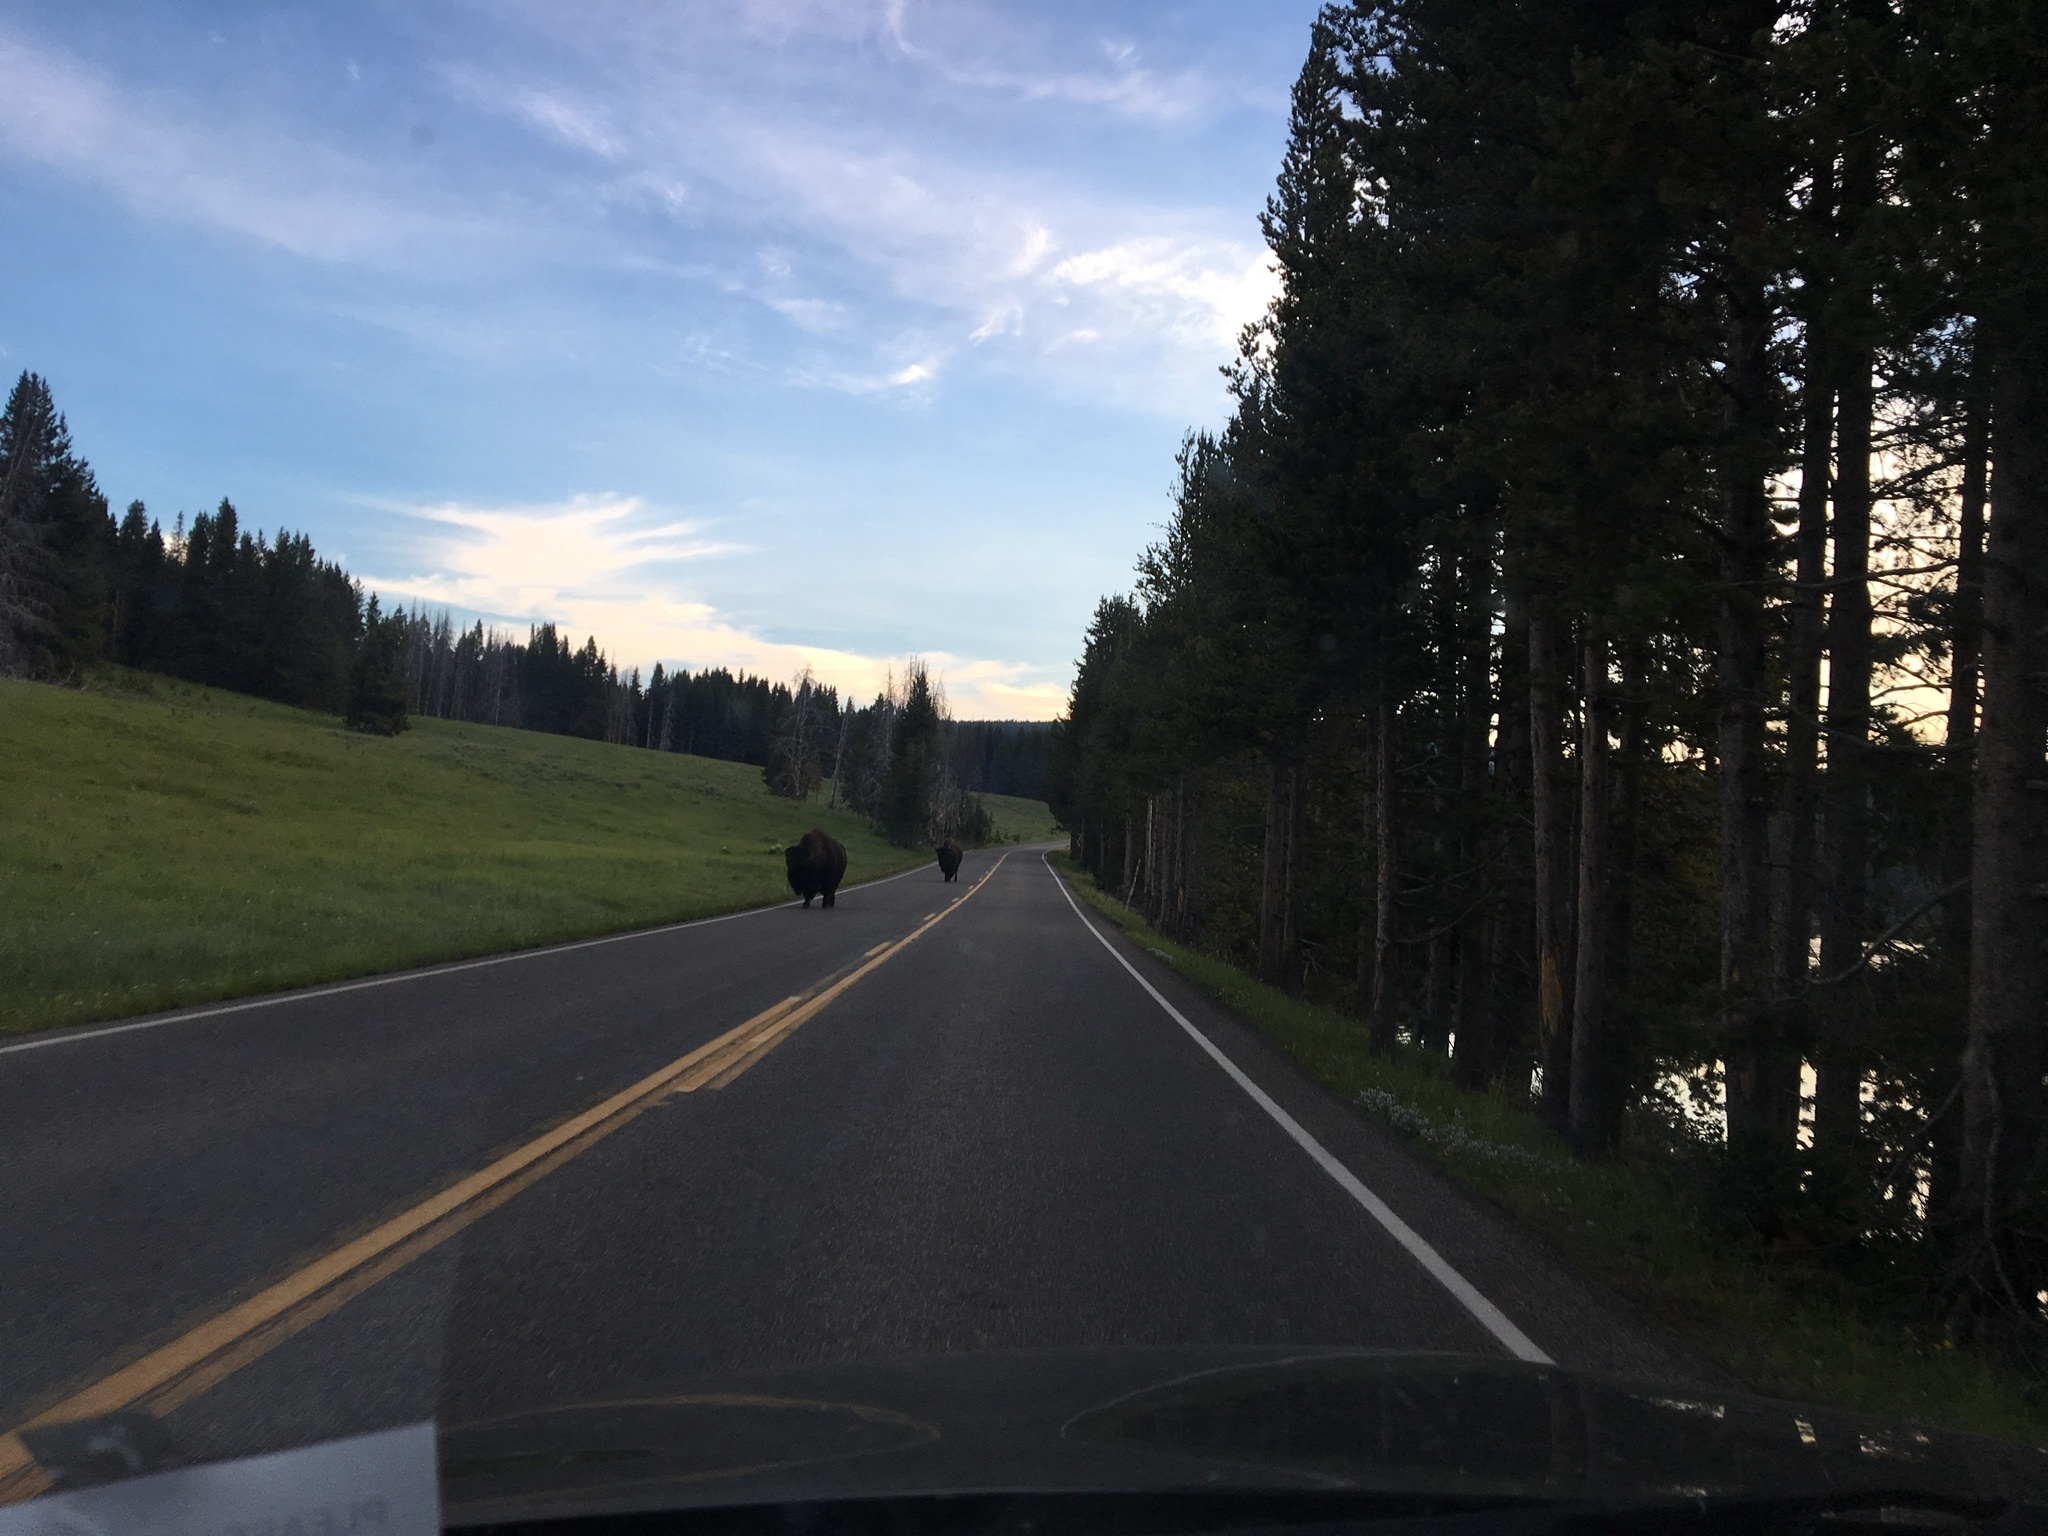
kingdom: Animalia
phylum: Chordata
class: Mammalia
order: Artiodactyla
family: Bovidae
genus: Bison
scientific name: Bison bison
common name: American bison
